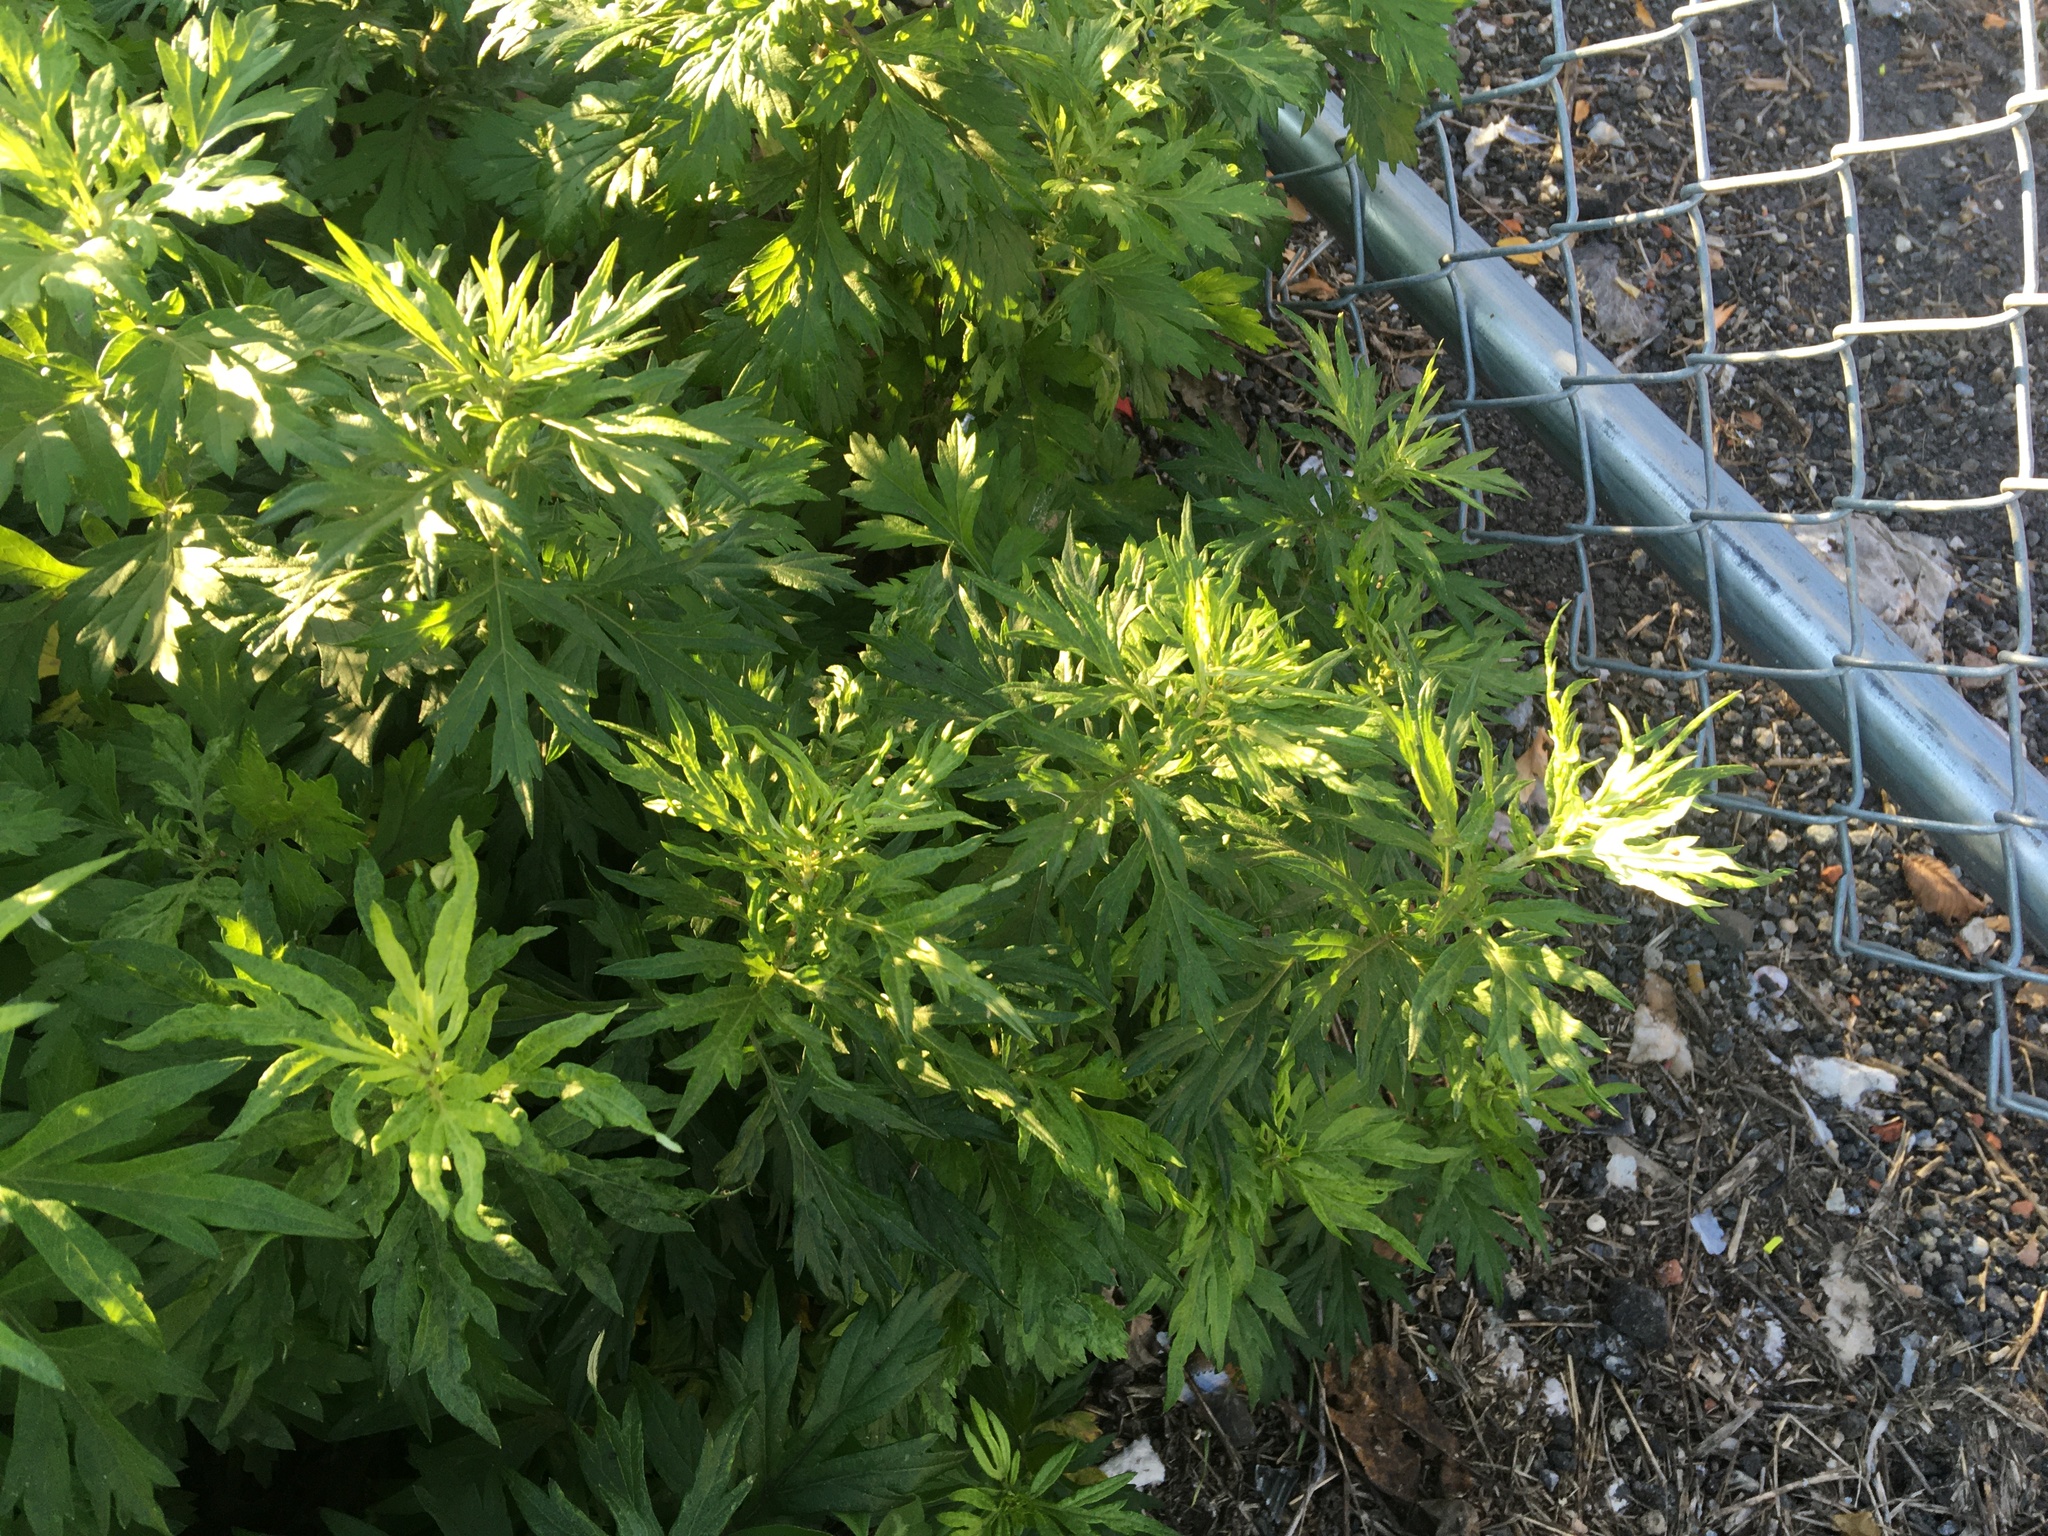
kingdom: Plantae
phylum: Tracheophyta
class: Magnoliopsida
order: Asterales
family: Asteraceae
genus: Artemisia
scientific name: Artemisia vulgaris
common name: Mugwort
